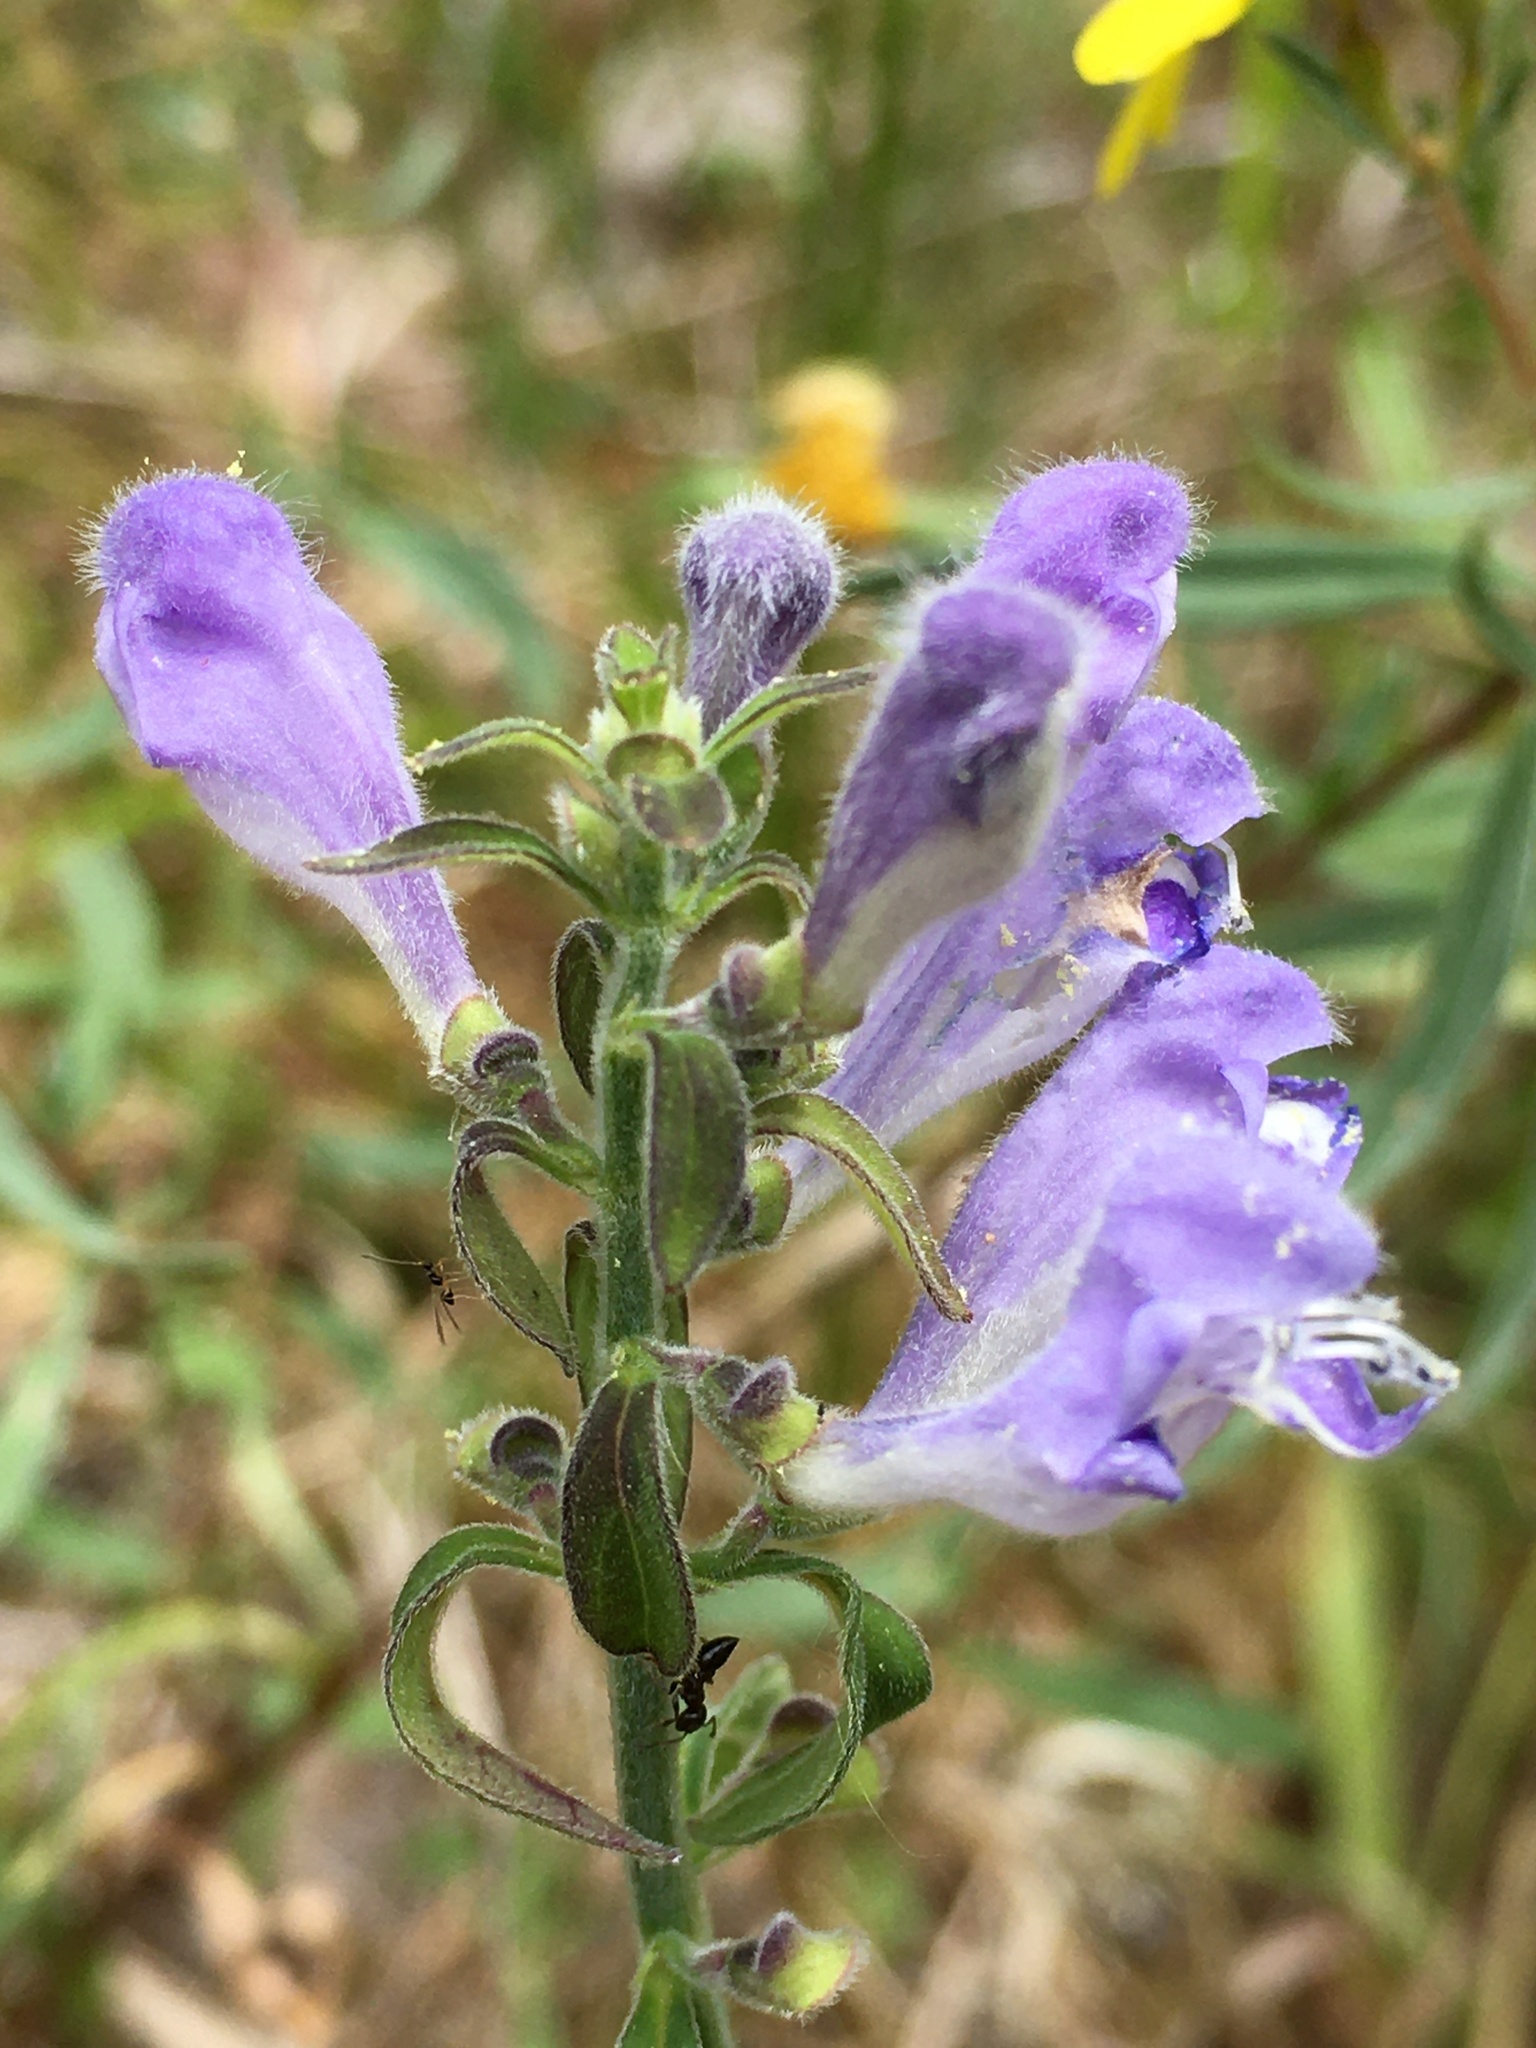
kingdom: Plantae
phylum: Tracheophyta
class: Magnoliopsida
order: Lamiales
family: Lamiaceae
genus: Scutellaria
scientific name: Scutellaria integrifolia
